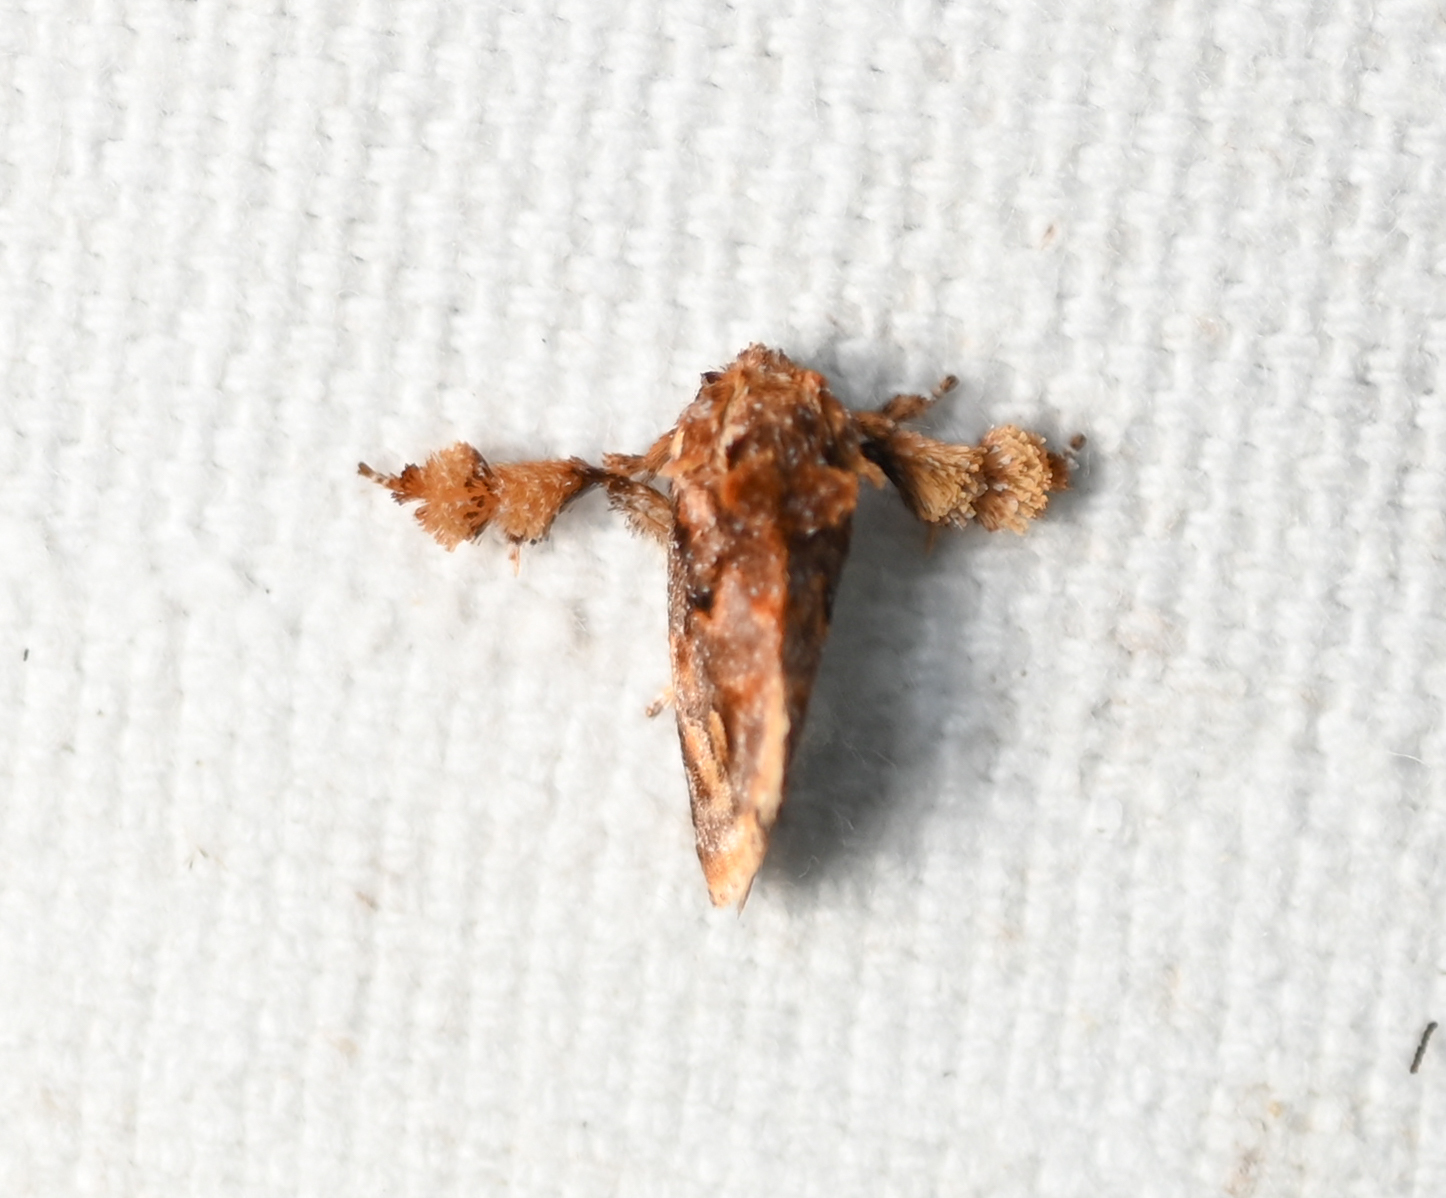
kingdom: Animalia
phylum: Arthropoda
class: Insecta
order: Lepidoptera
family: Limacodidae
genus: Isochaetes
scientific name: Isochaetes beutenmuelleri
